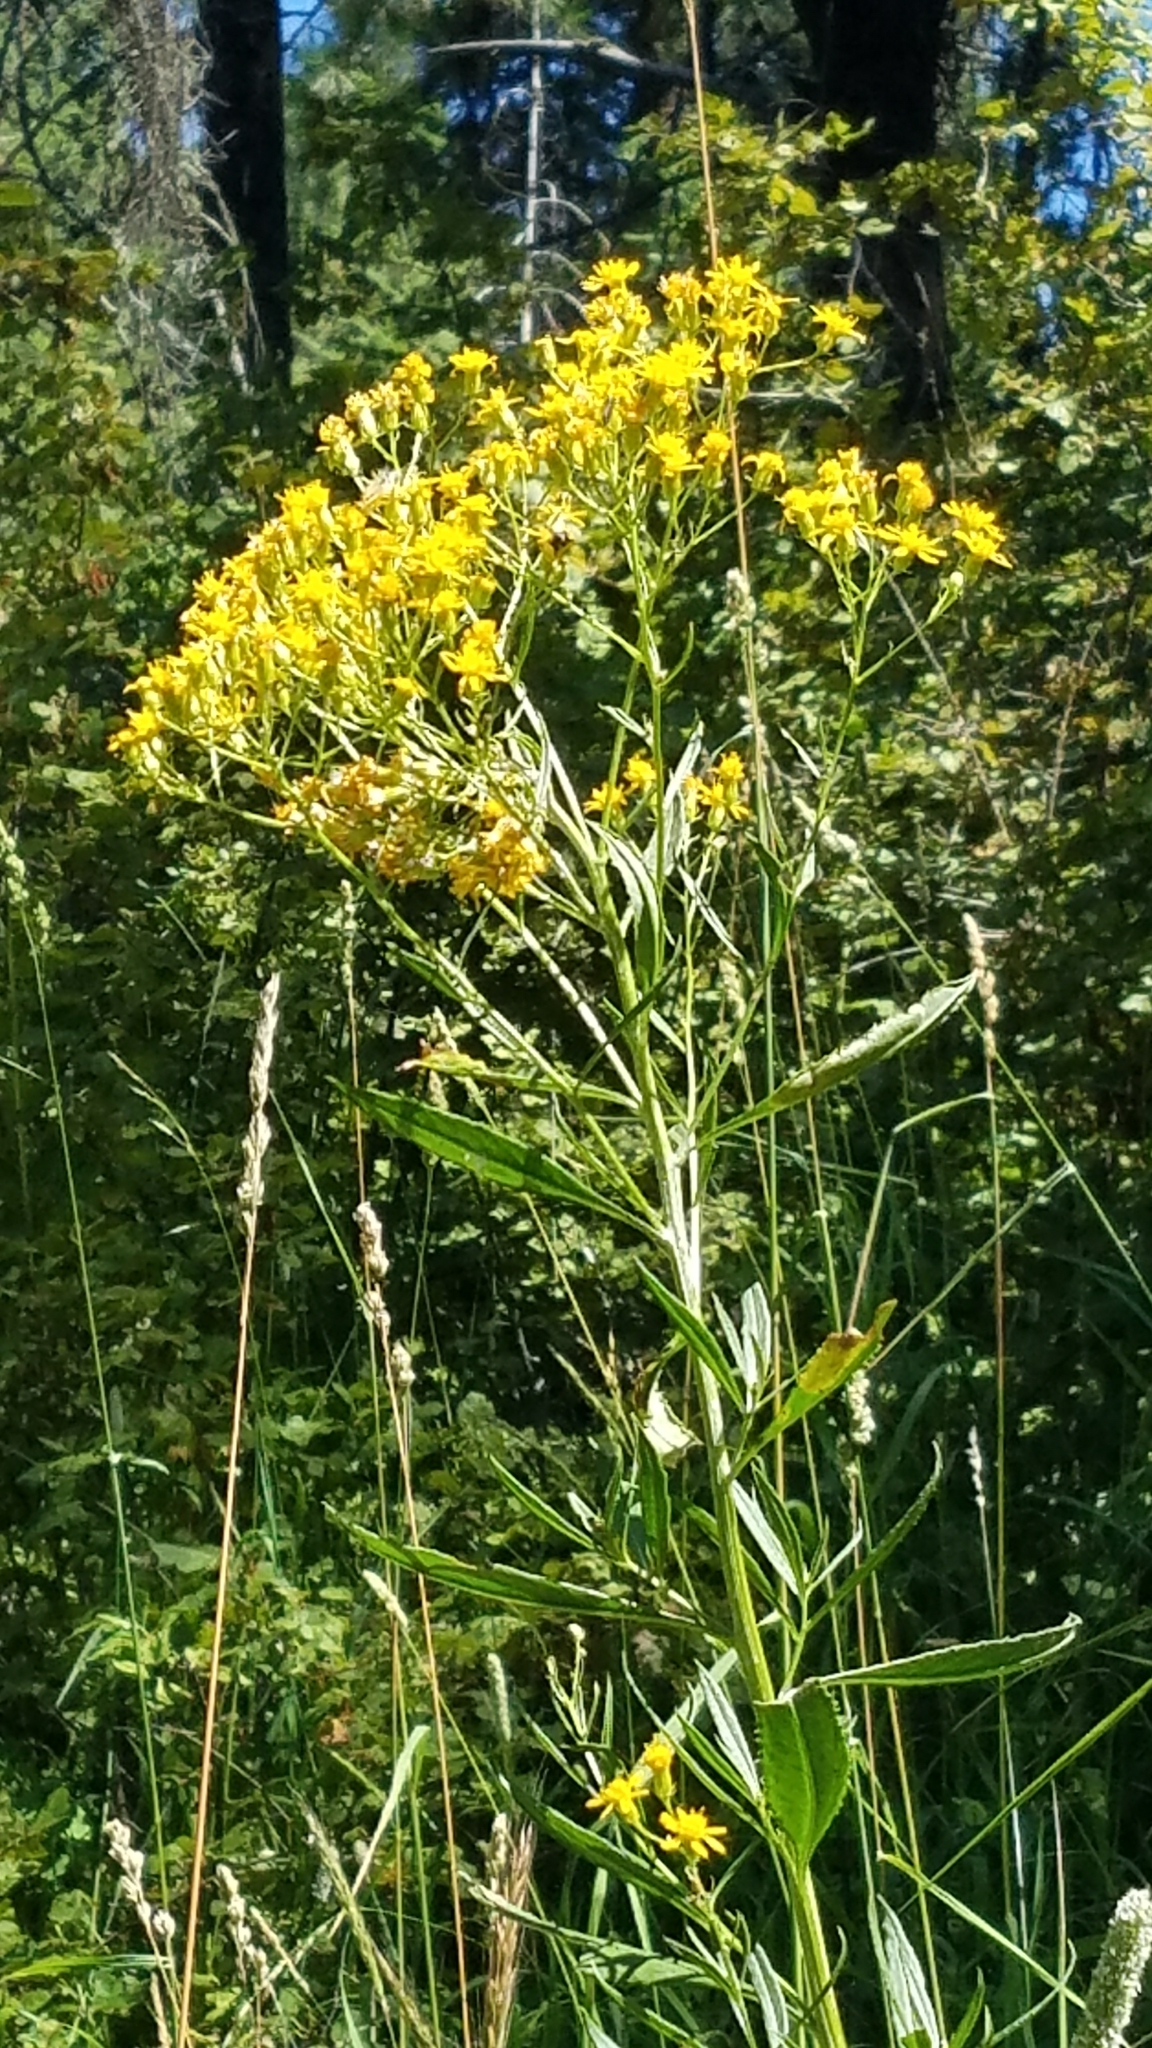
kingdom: Plantae
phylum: Tracheophyta
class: Magnoliopsida
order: Asterales
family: Asteraceae
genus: Senecio
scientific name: Senecio serra
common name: Tall ragwort
